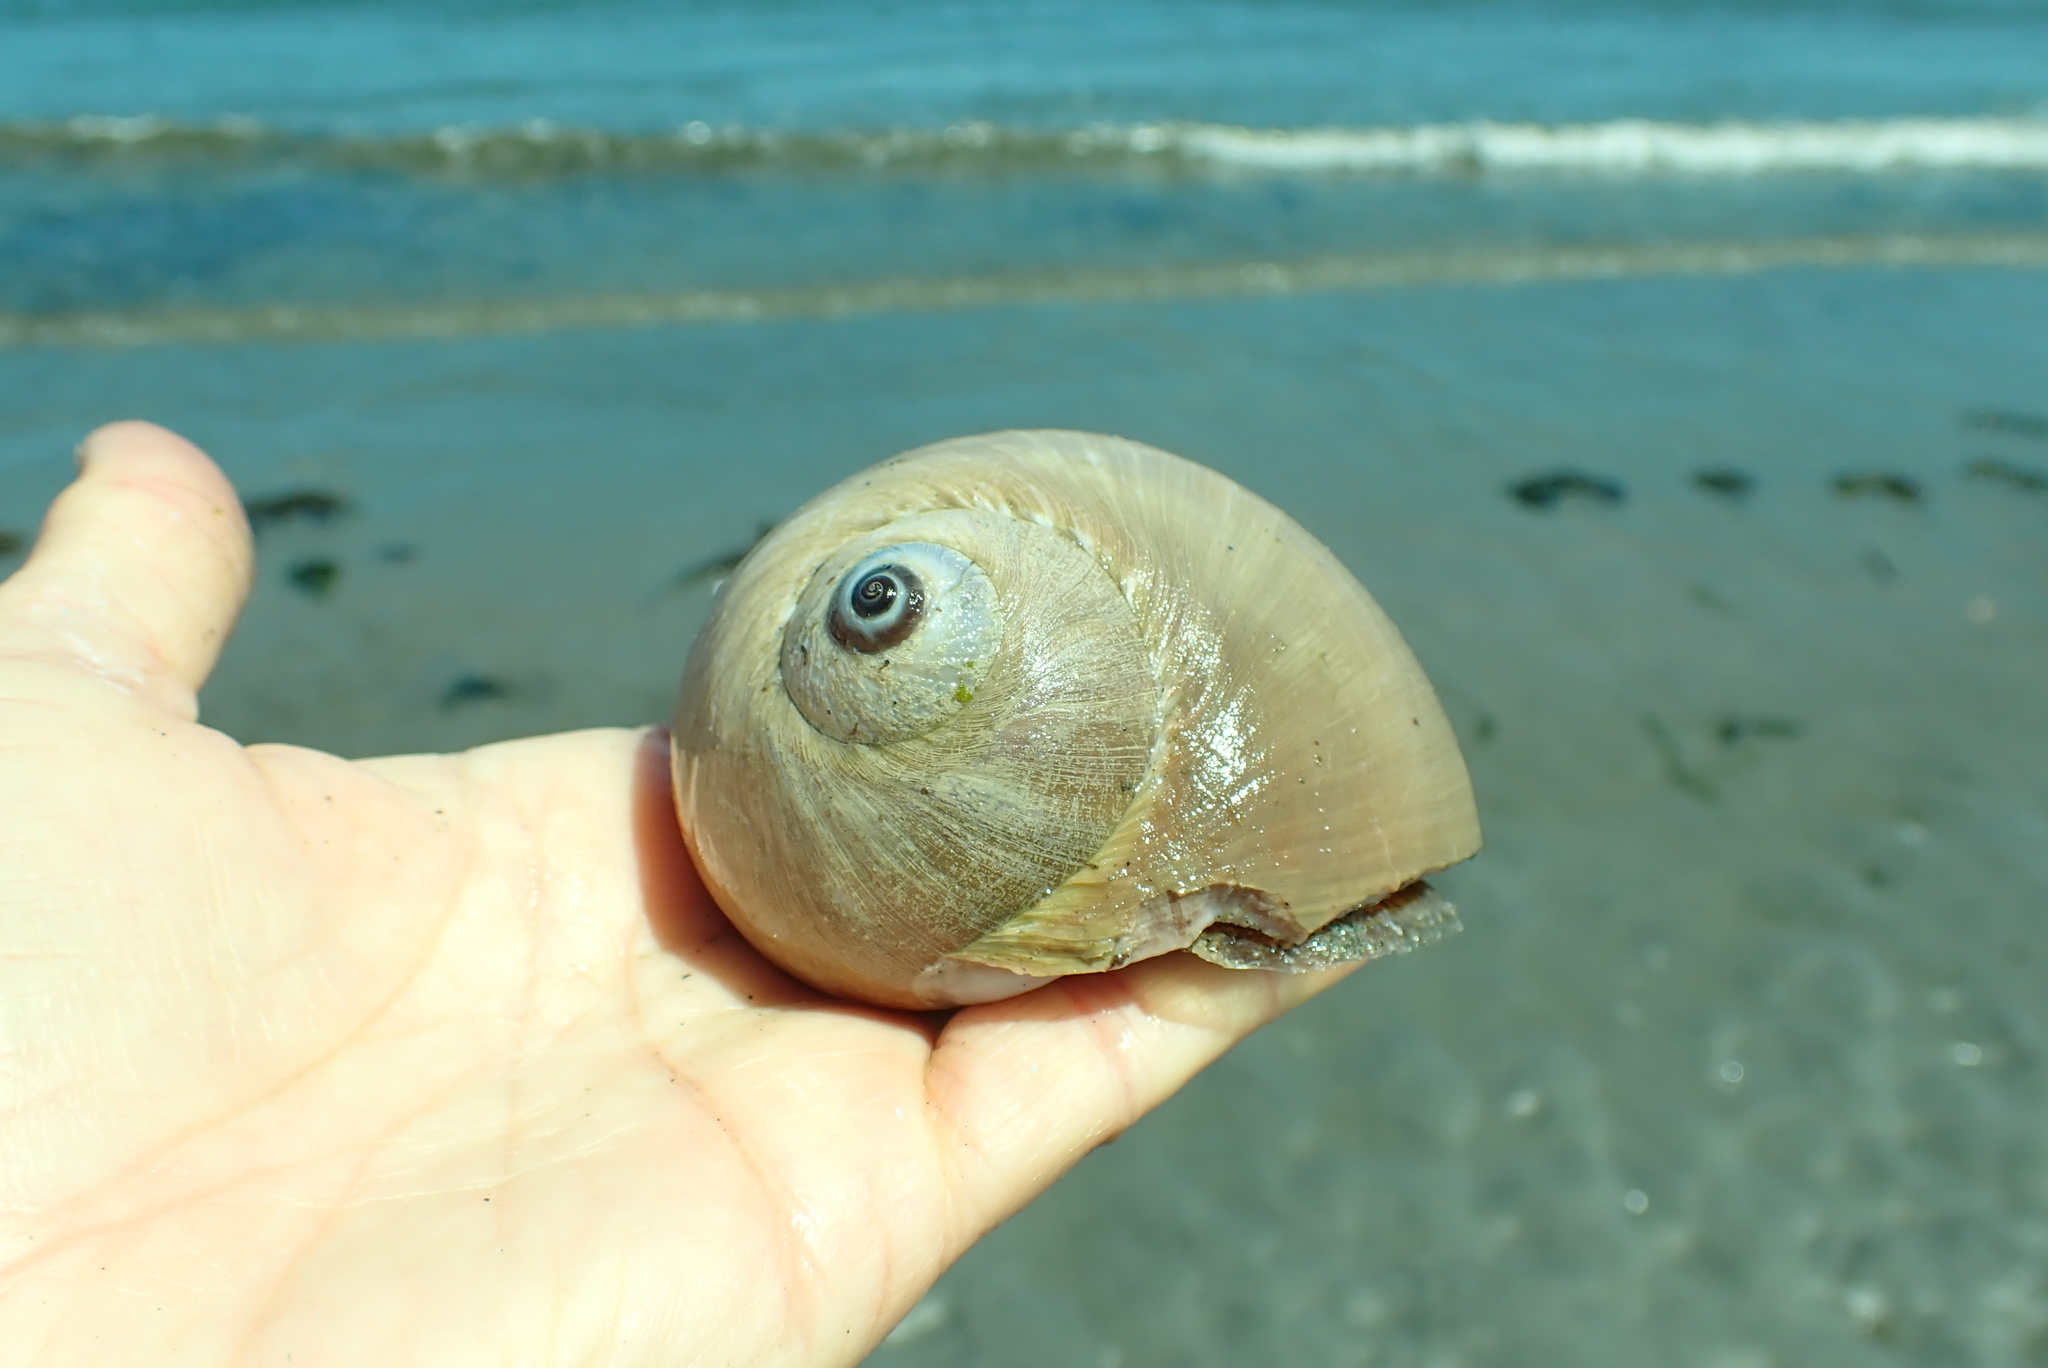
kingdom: Animalia
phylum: Mollusca
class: Gastropoda
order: Littorinimorpha
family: Naticidae
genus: Neverita
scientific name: Neverita lewisii
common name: Lewis' moonsnail
